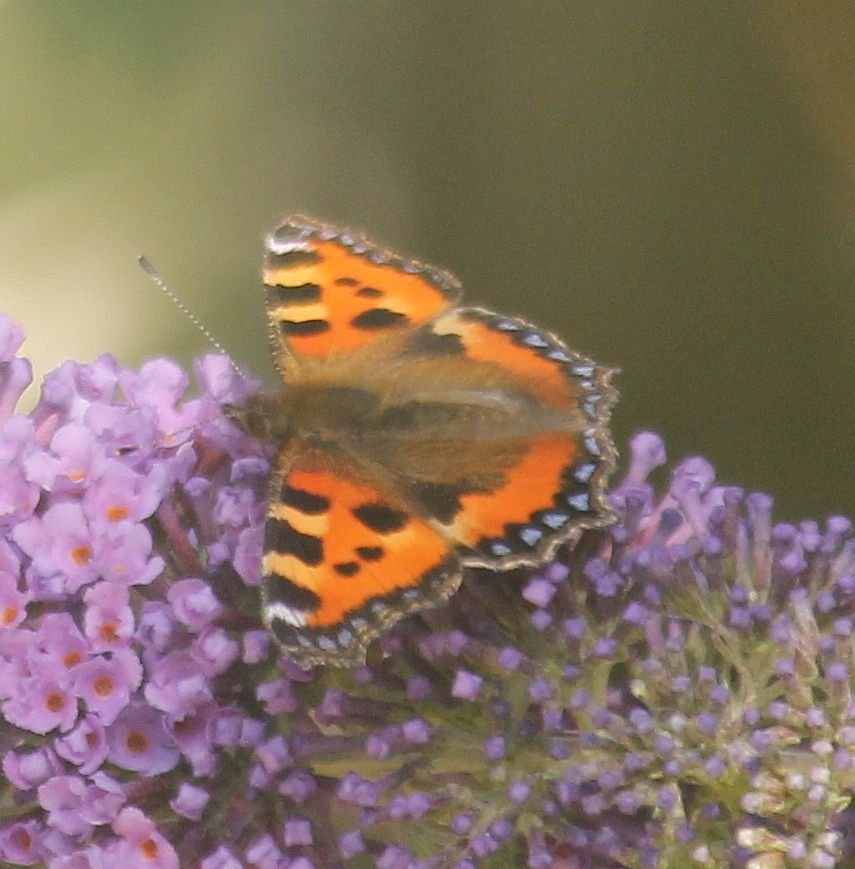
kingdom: Animalia
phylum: Arthropoda
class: Insecta
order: Lepidoptera
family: Nymphalidae
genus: Aglais
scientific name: Aglais urticae
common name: Small tortoiseshell
